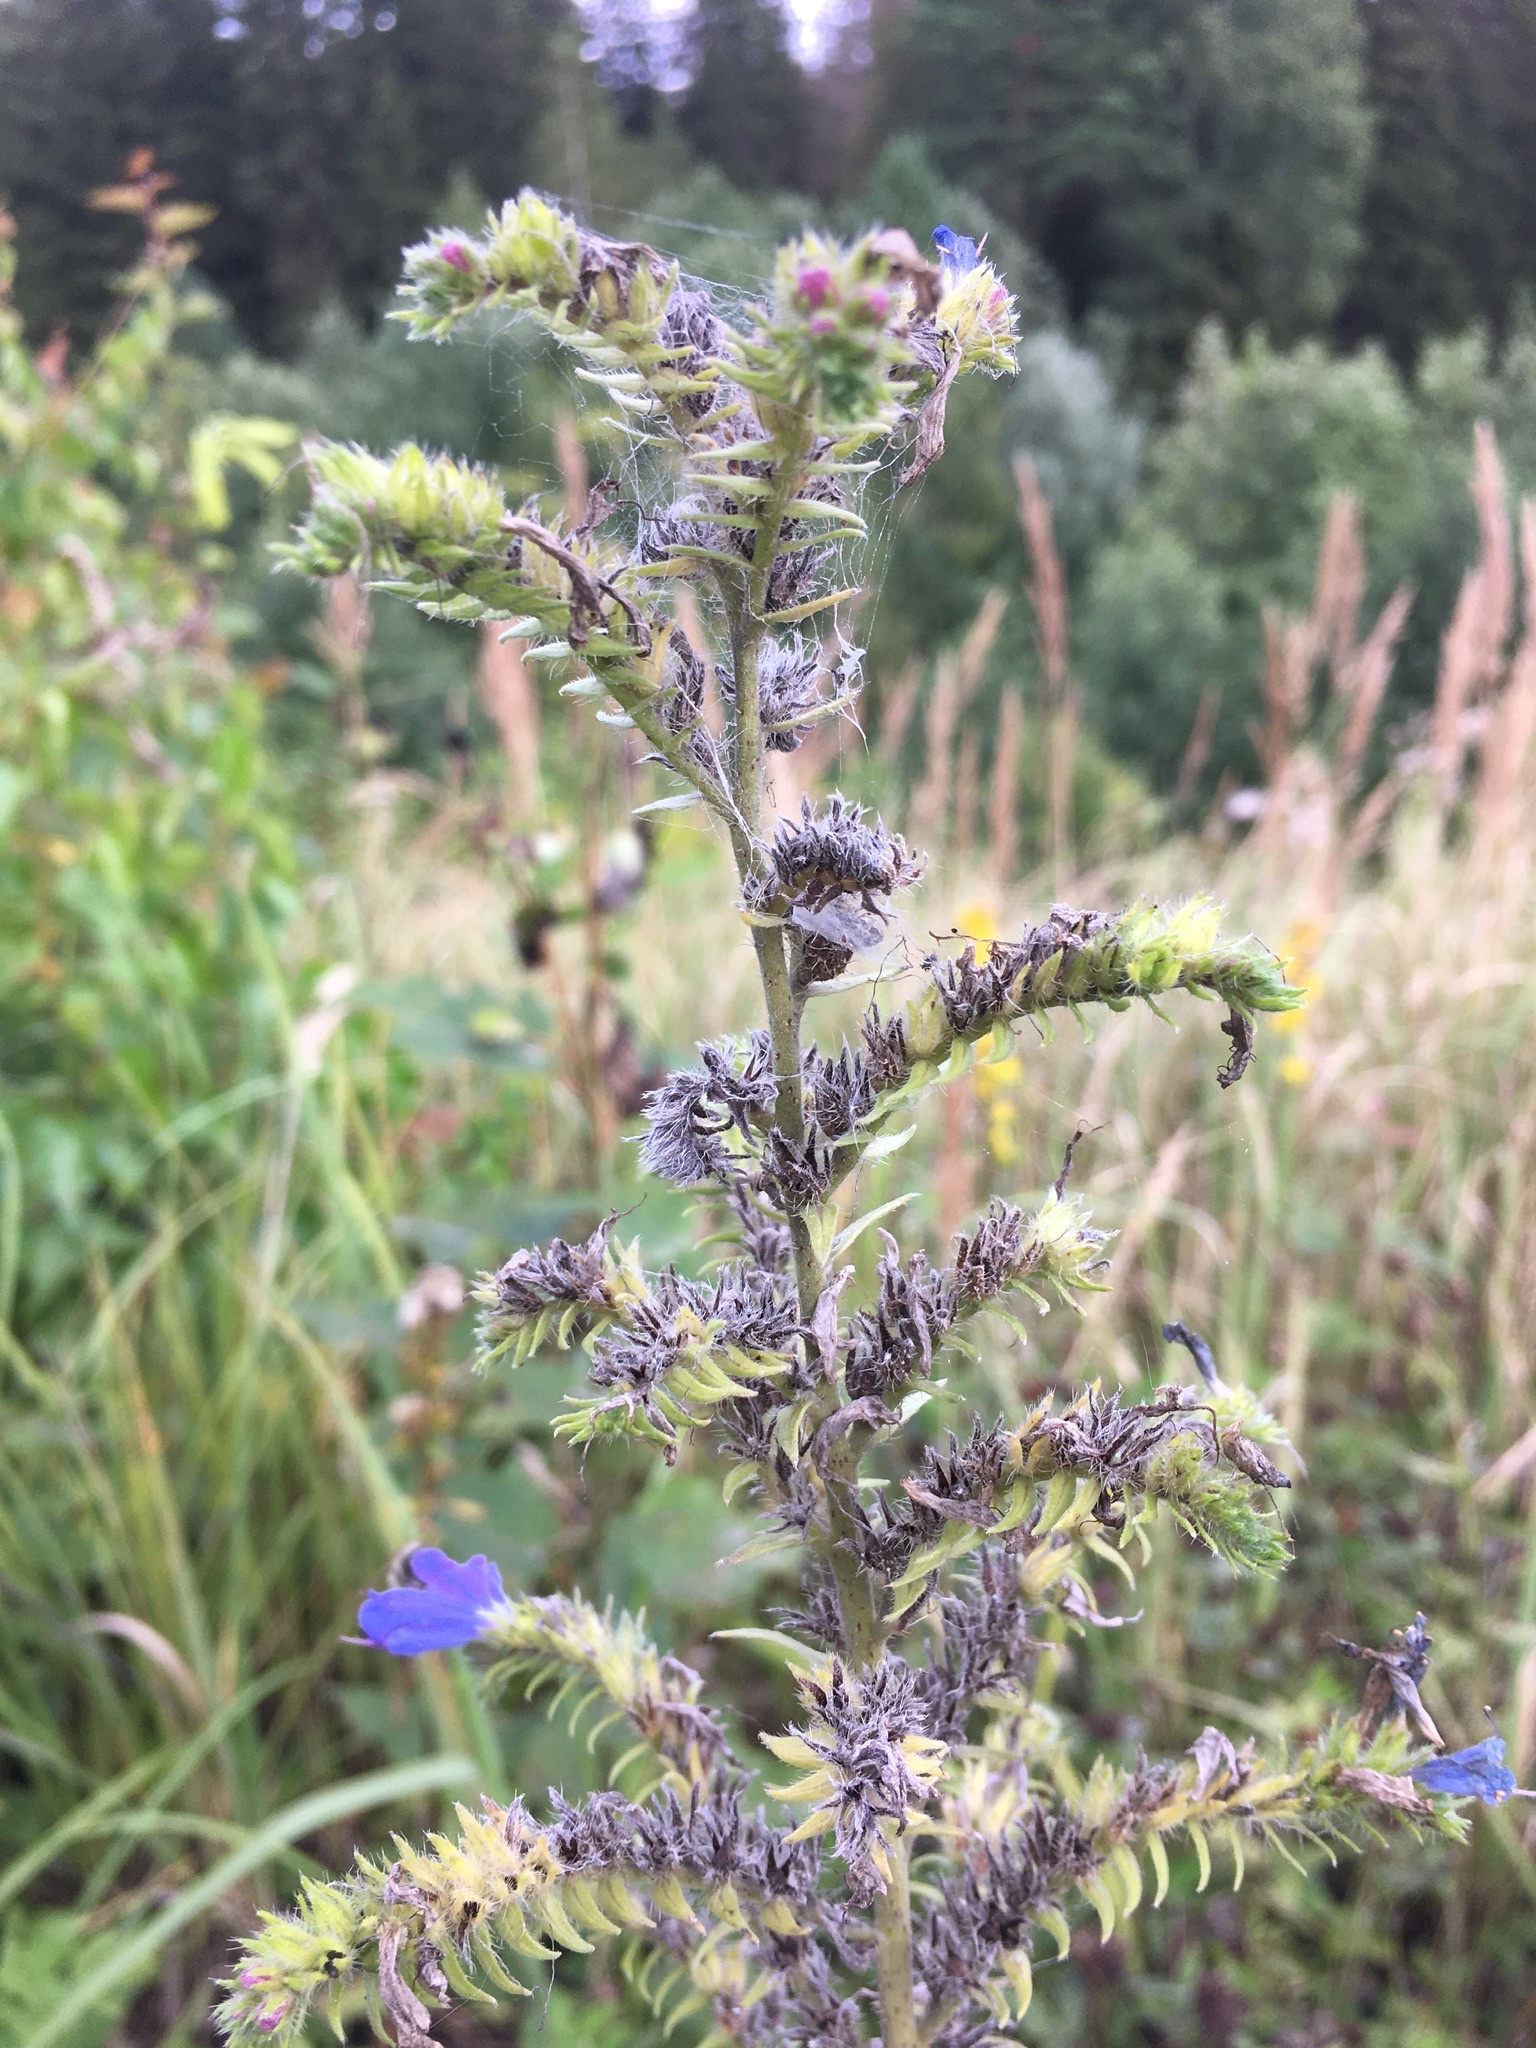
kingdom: Plantae
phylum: Tracheophyta
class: Magnoliopsida
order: Boraginales
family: Boraginaceae
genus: Echium
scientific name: Echium vulgare
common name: Common viper's bugloss
